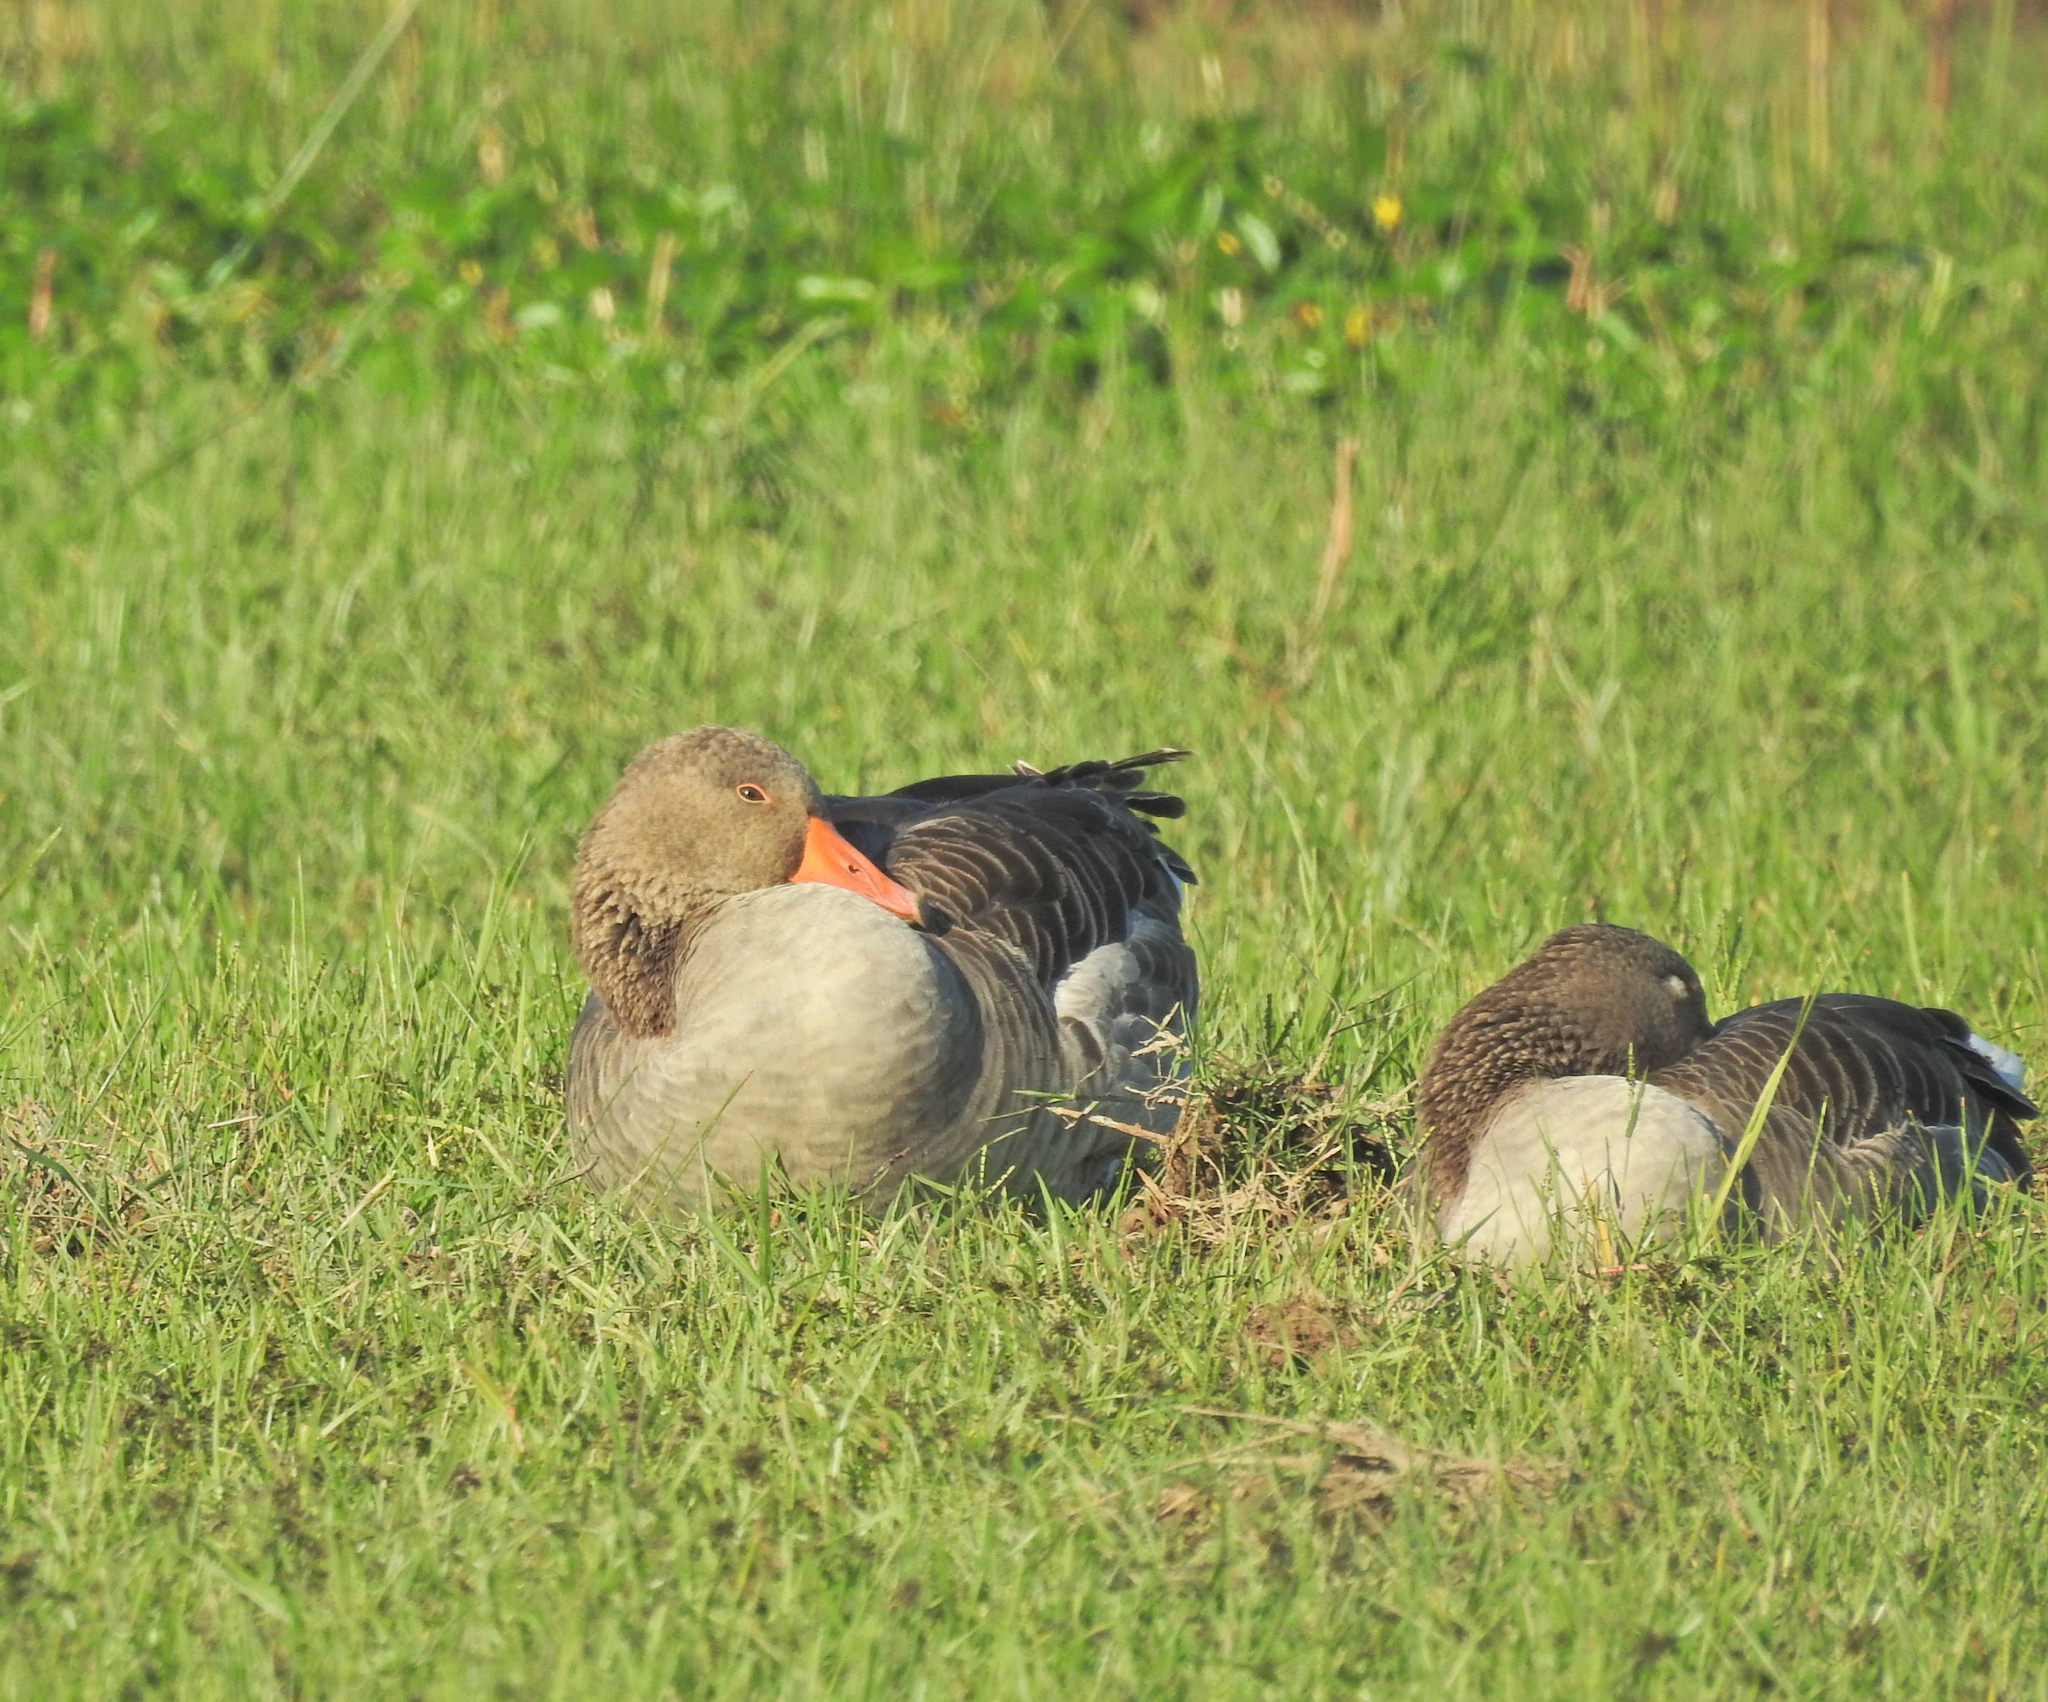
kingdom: Animalia
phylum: Chordata
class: Aves
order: Anseriformes
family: Anatidae
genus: Anser
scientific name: Anser anser
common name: Greylag goose
